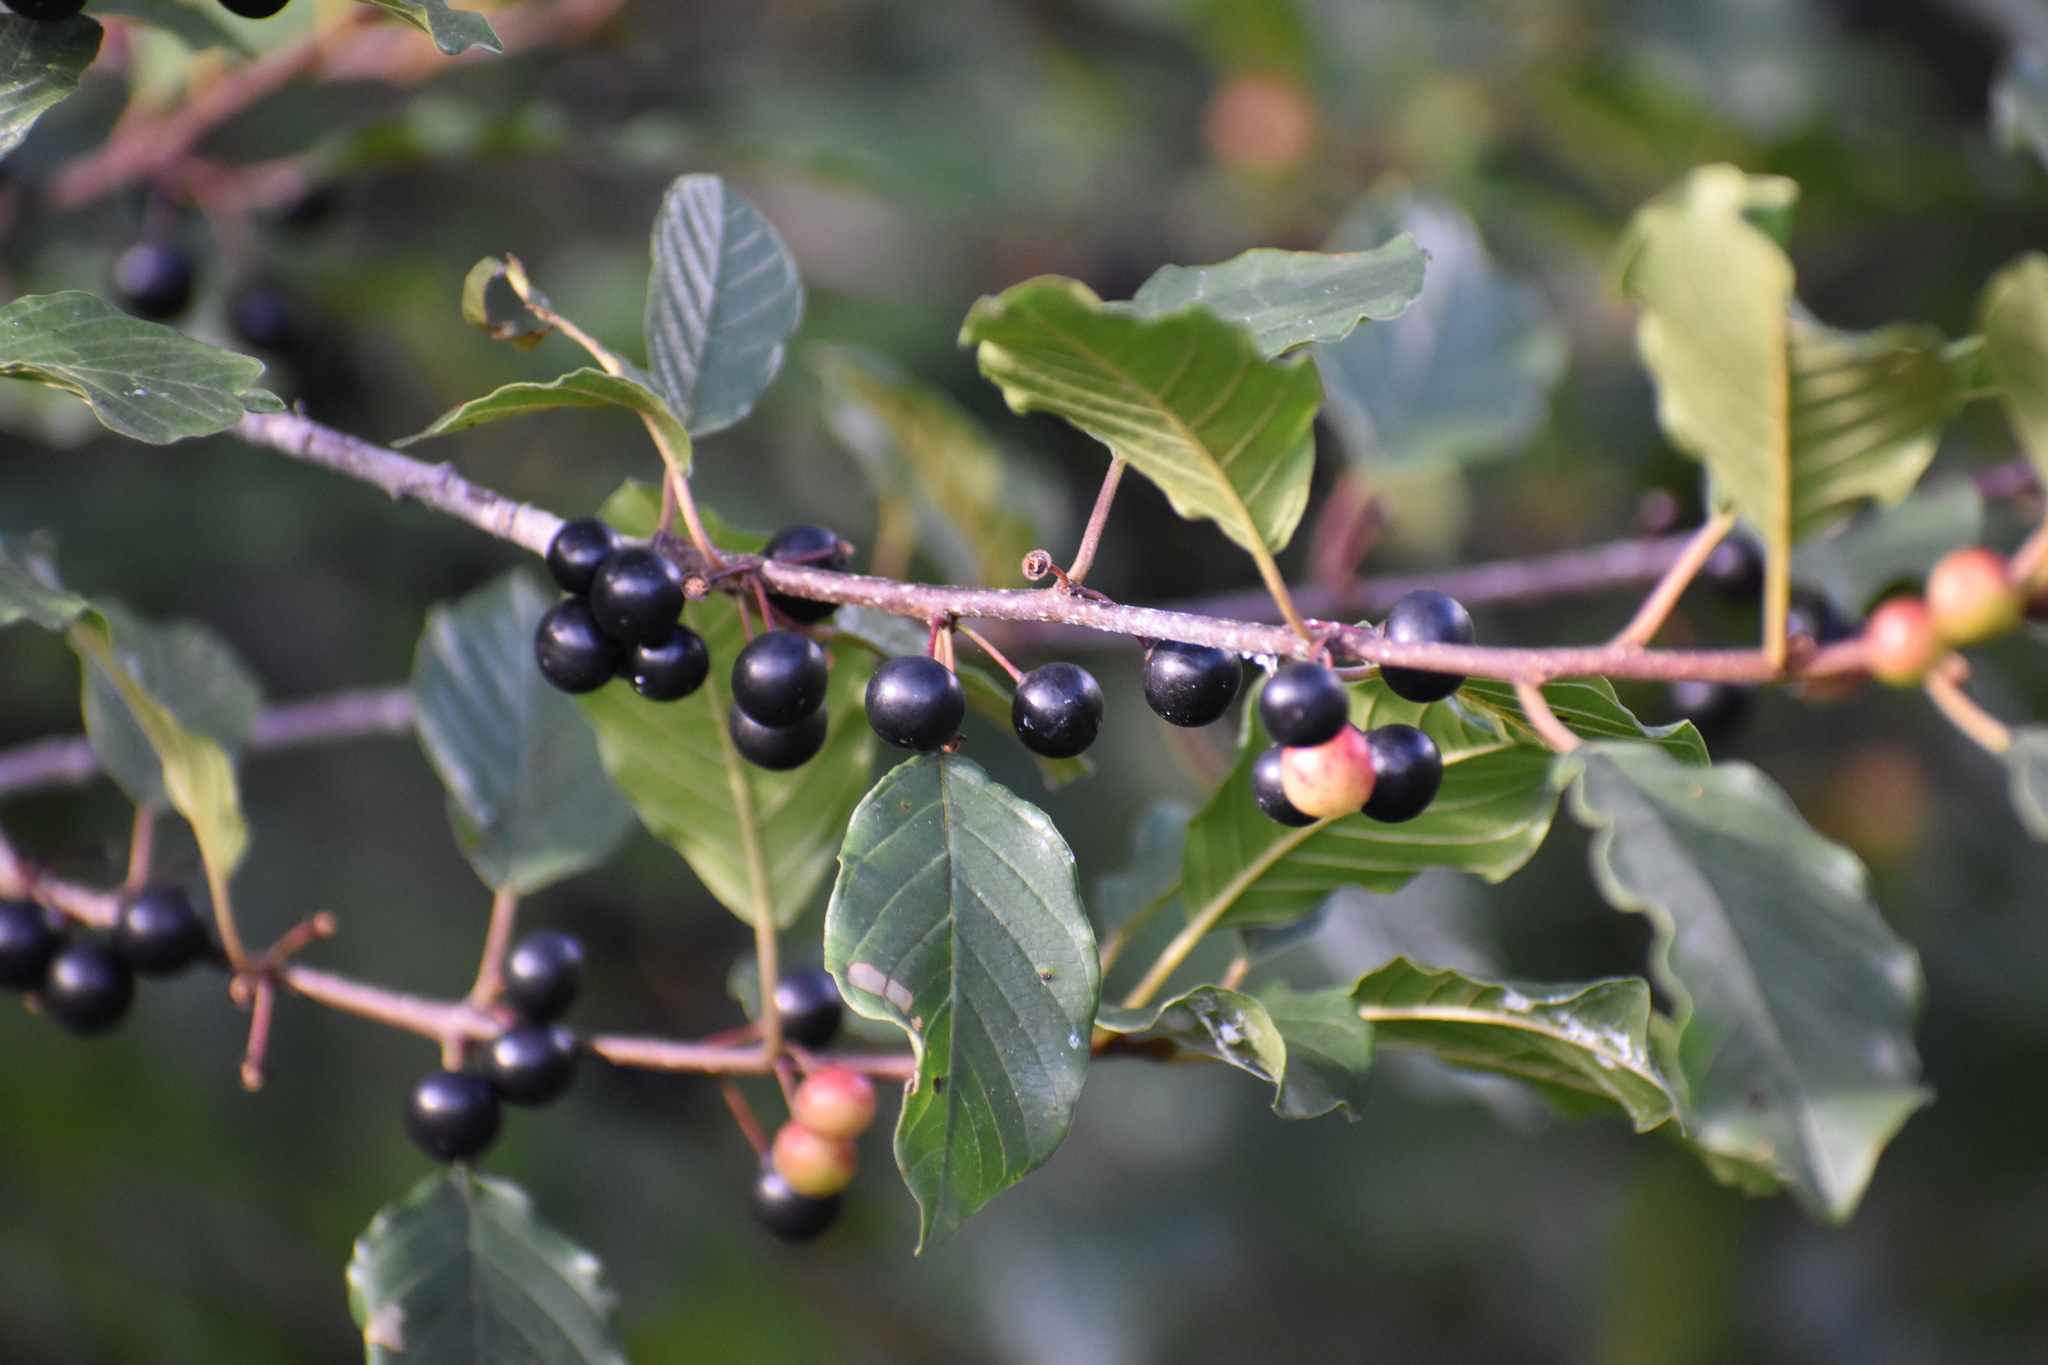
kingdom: Plantae
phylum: Tracheophyta
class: Magnoliopsida
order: Rosales
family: Rhamnaceae
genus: Frangula
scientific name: Frangula alnus
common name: Alder buckthorn
